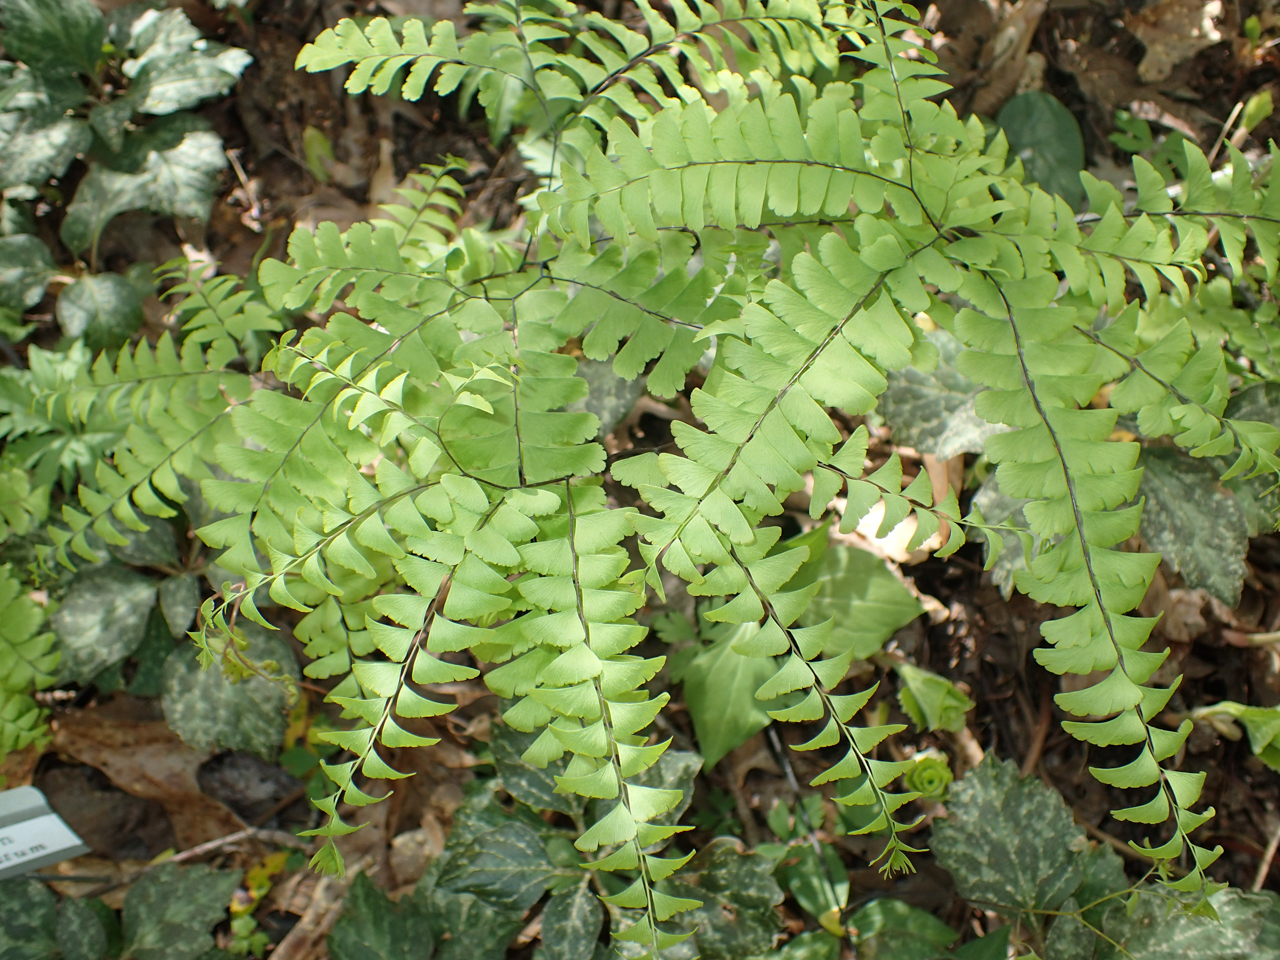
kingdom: Plantae
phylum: Tracheophyta
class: Polypodiopsida
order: Polypodiales
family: Pteridaceae
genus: Adiantum
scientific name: Adiantum pedatum
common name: Five-finger fern
